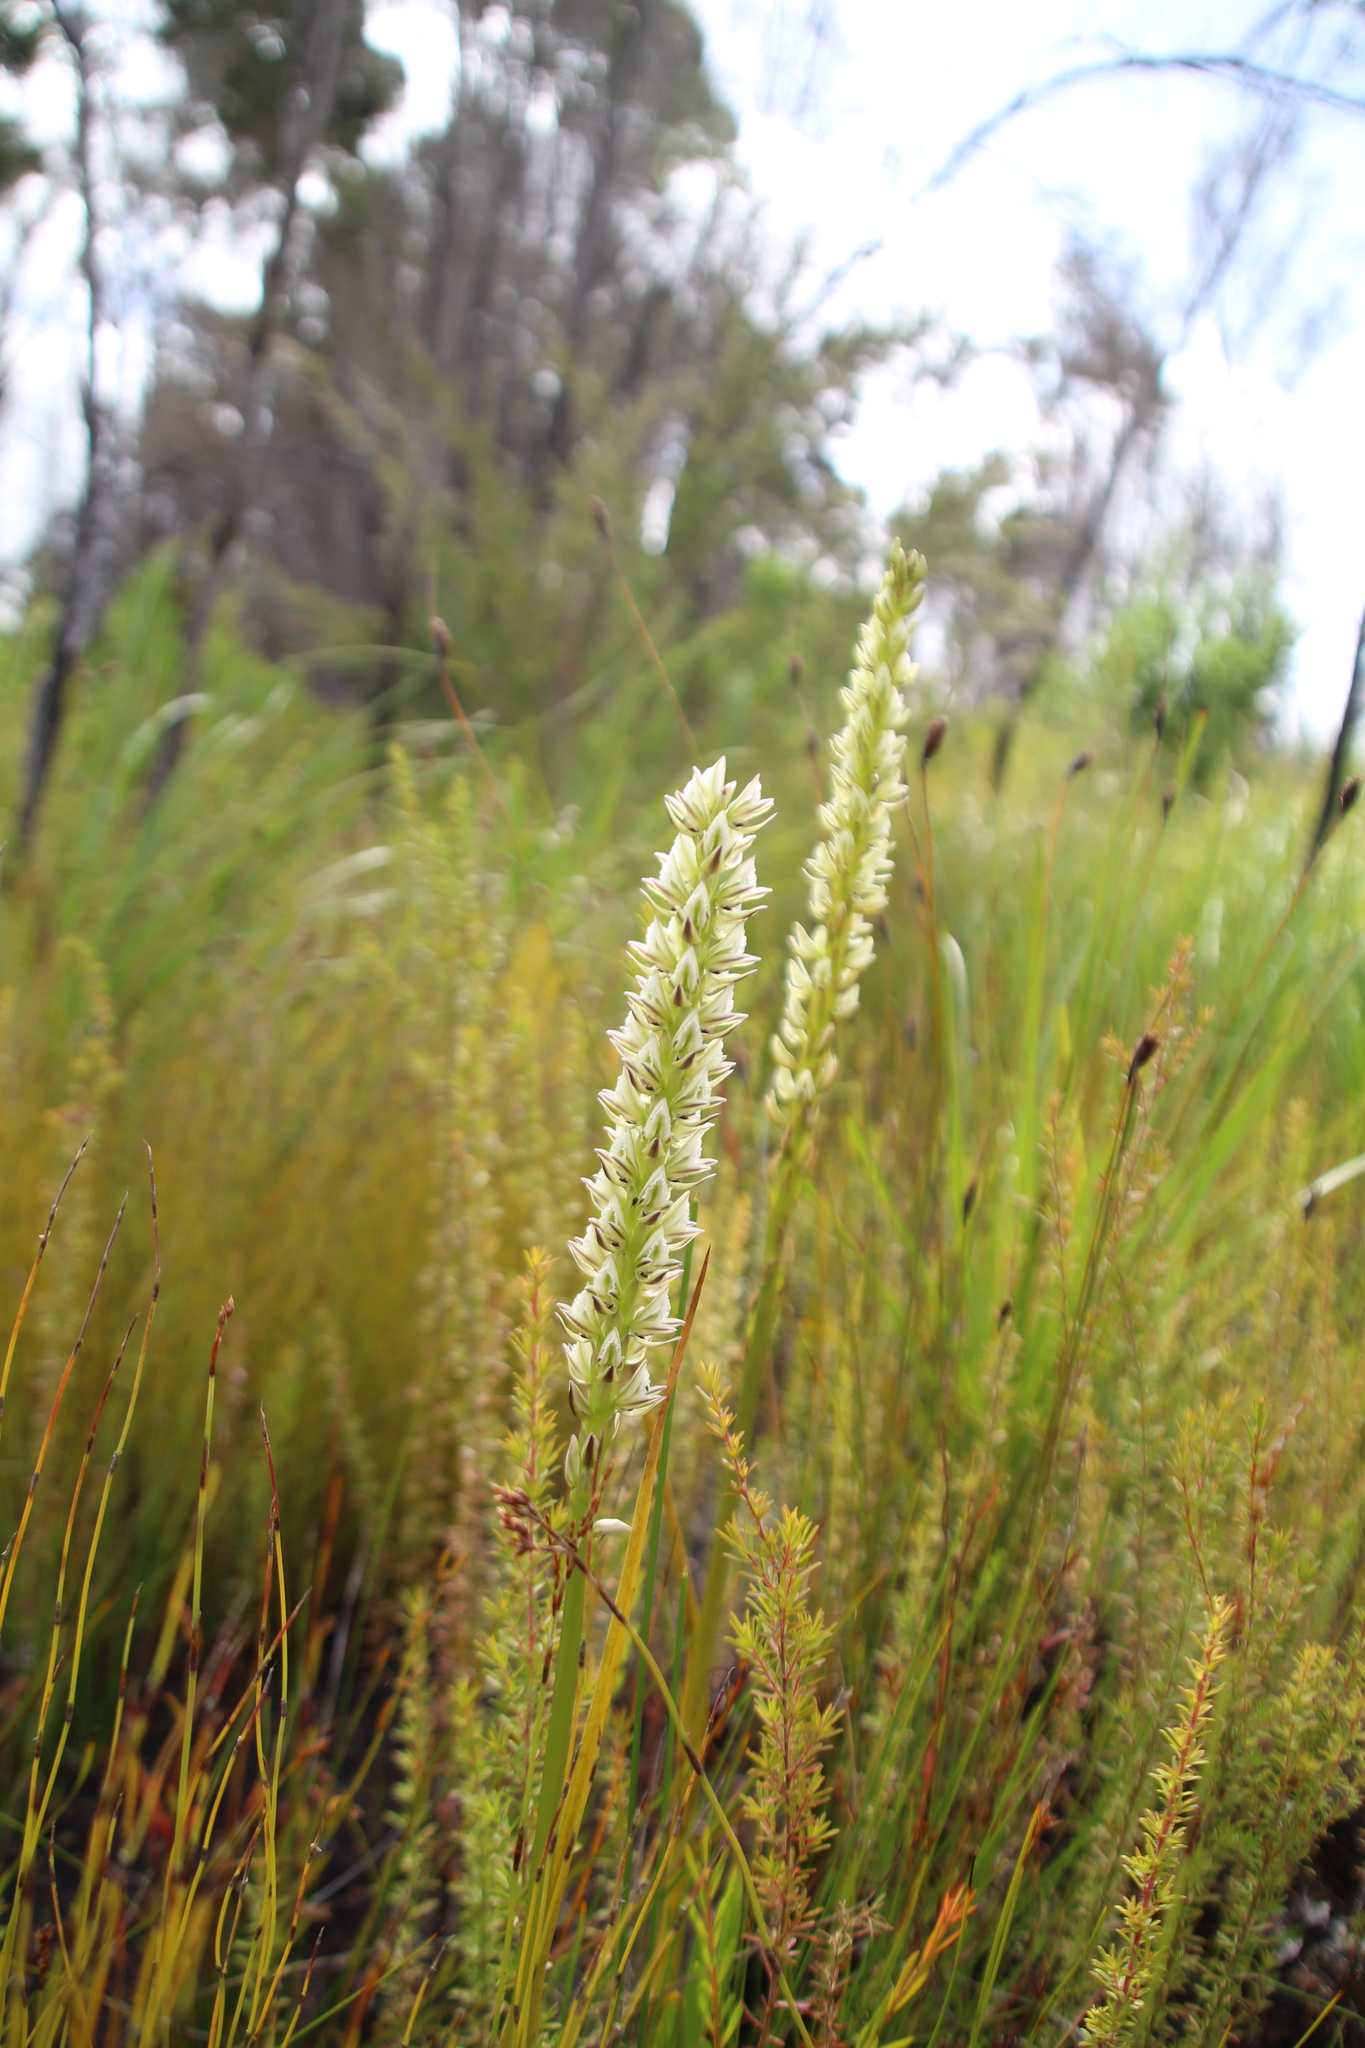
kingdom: Plantae
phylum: Tracheophyta
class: Liliopsida
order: Asparagales
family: Orchidaceae
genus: Prasophyllum
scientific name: Prasophyllum brownii
